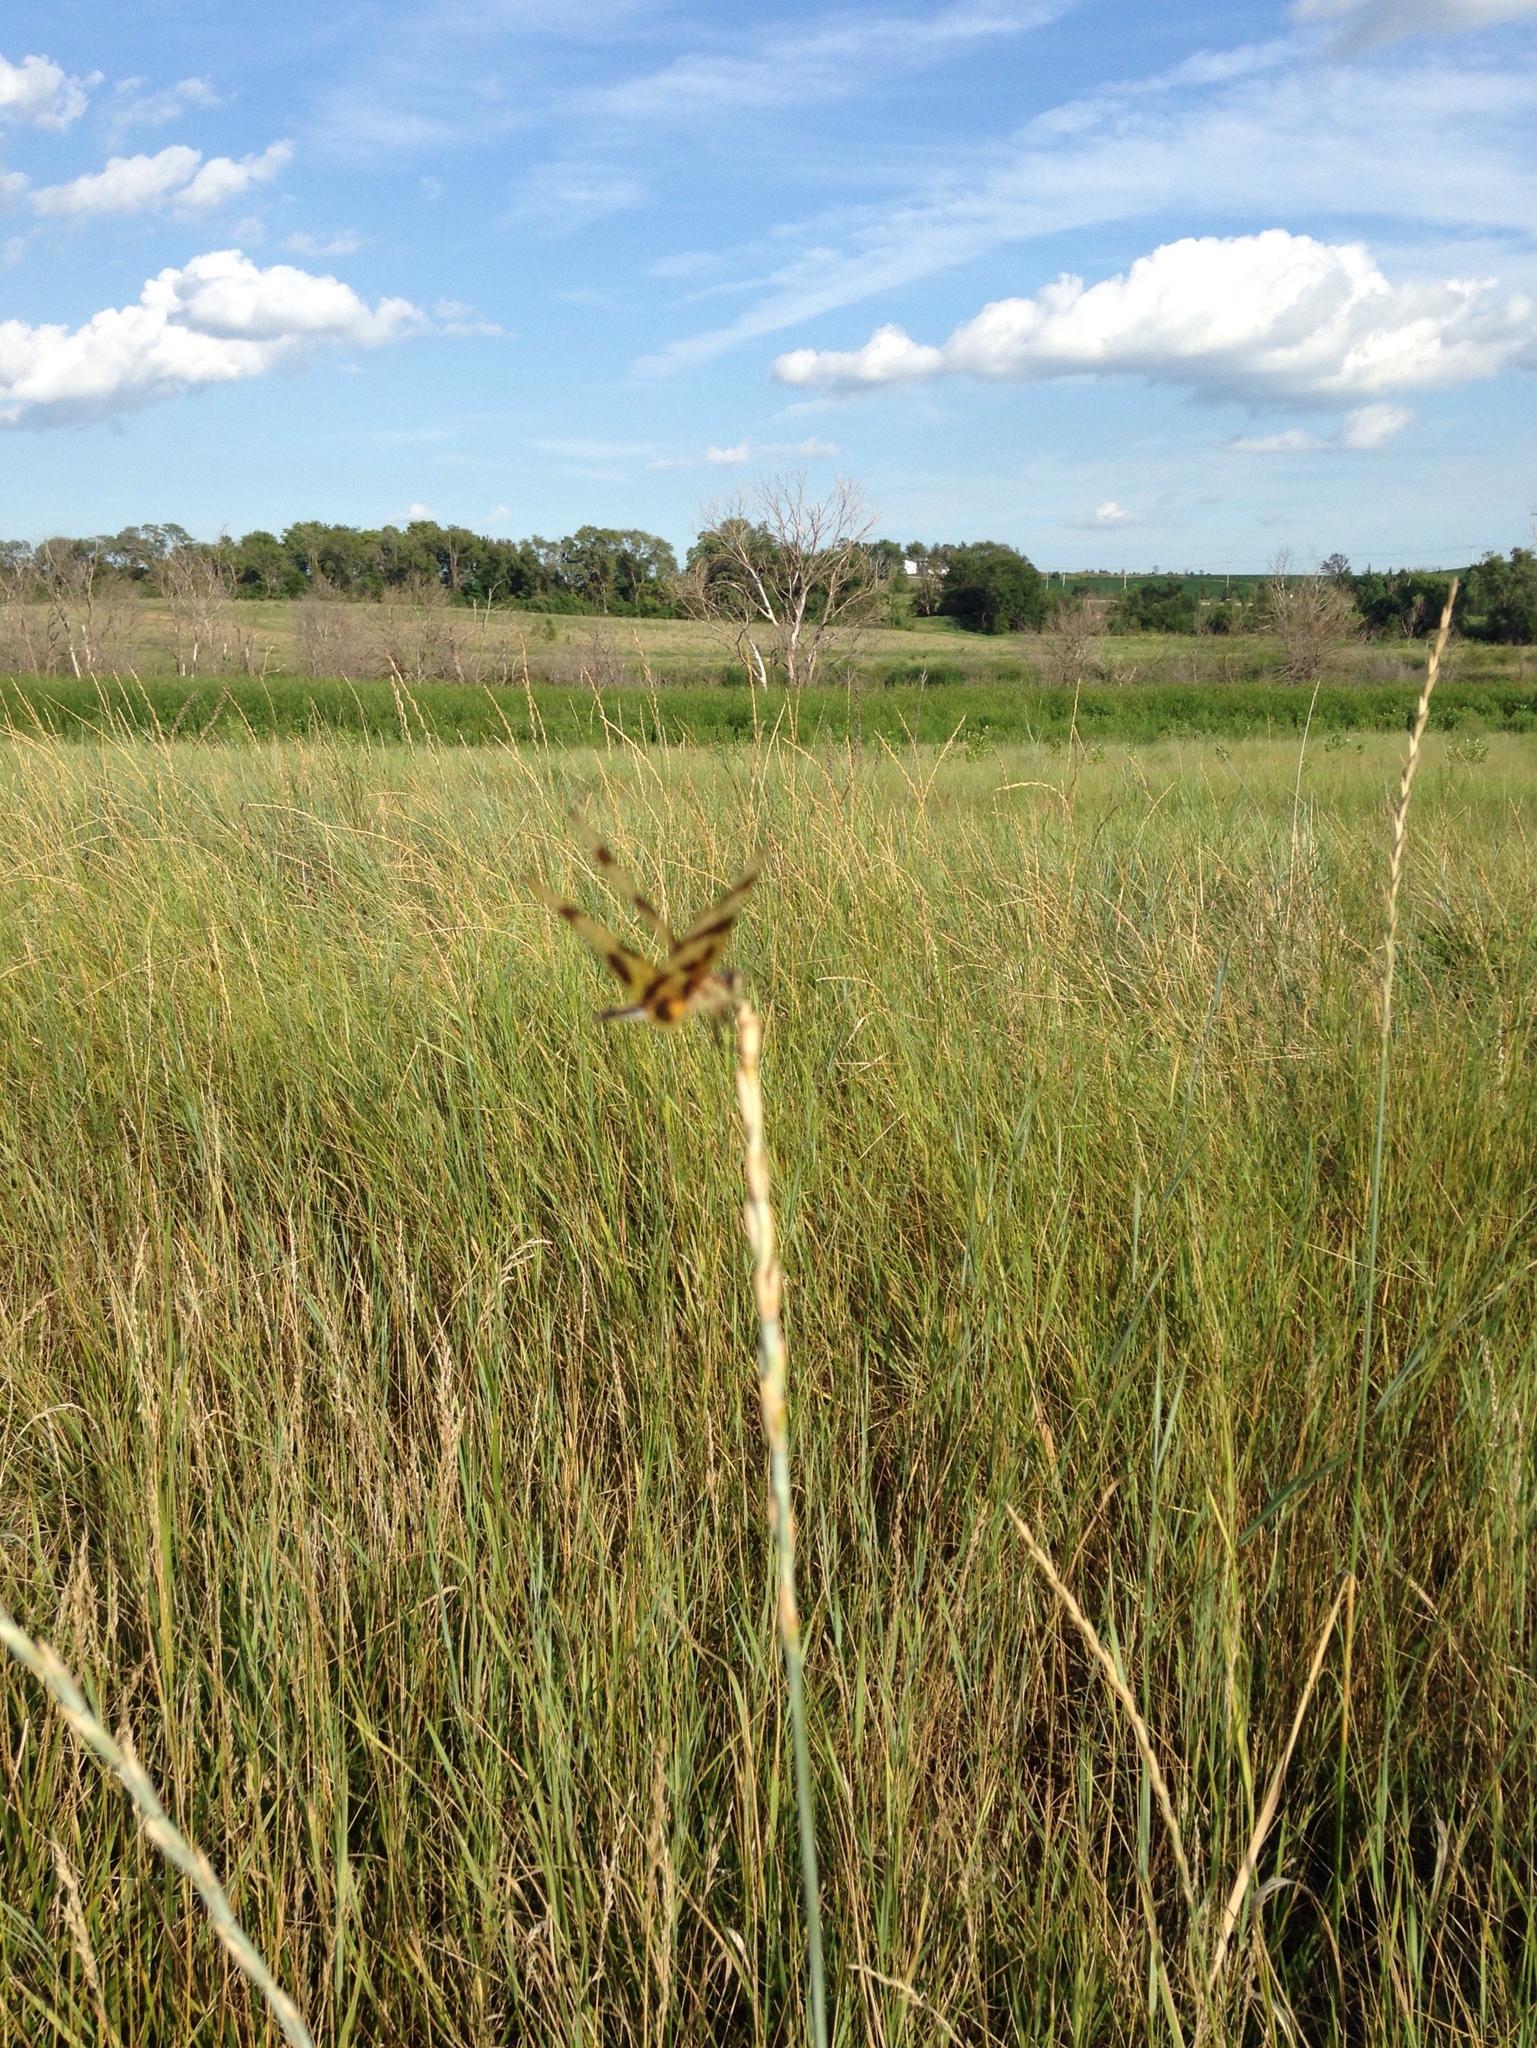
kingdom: Animalia
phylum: Arthropoda
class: Insecta
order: Odonata
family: Libellulidae
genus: Celithemis
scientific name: Celithemis eponina
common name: Halloween pennant
